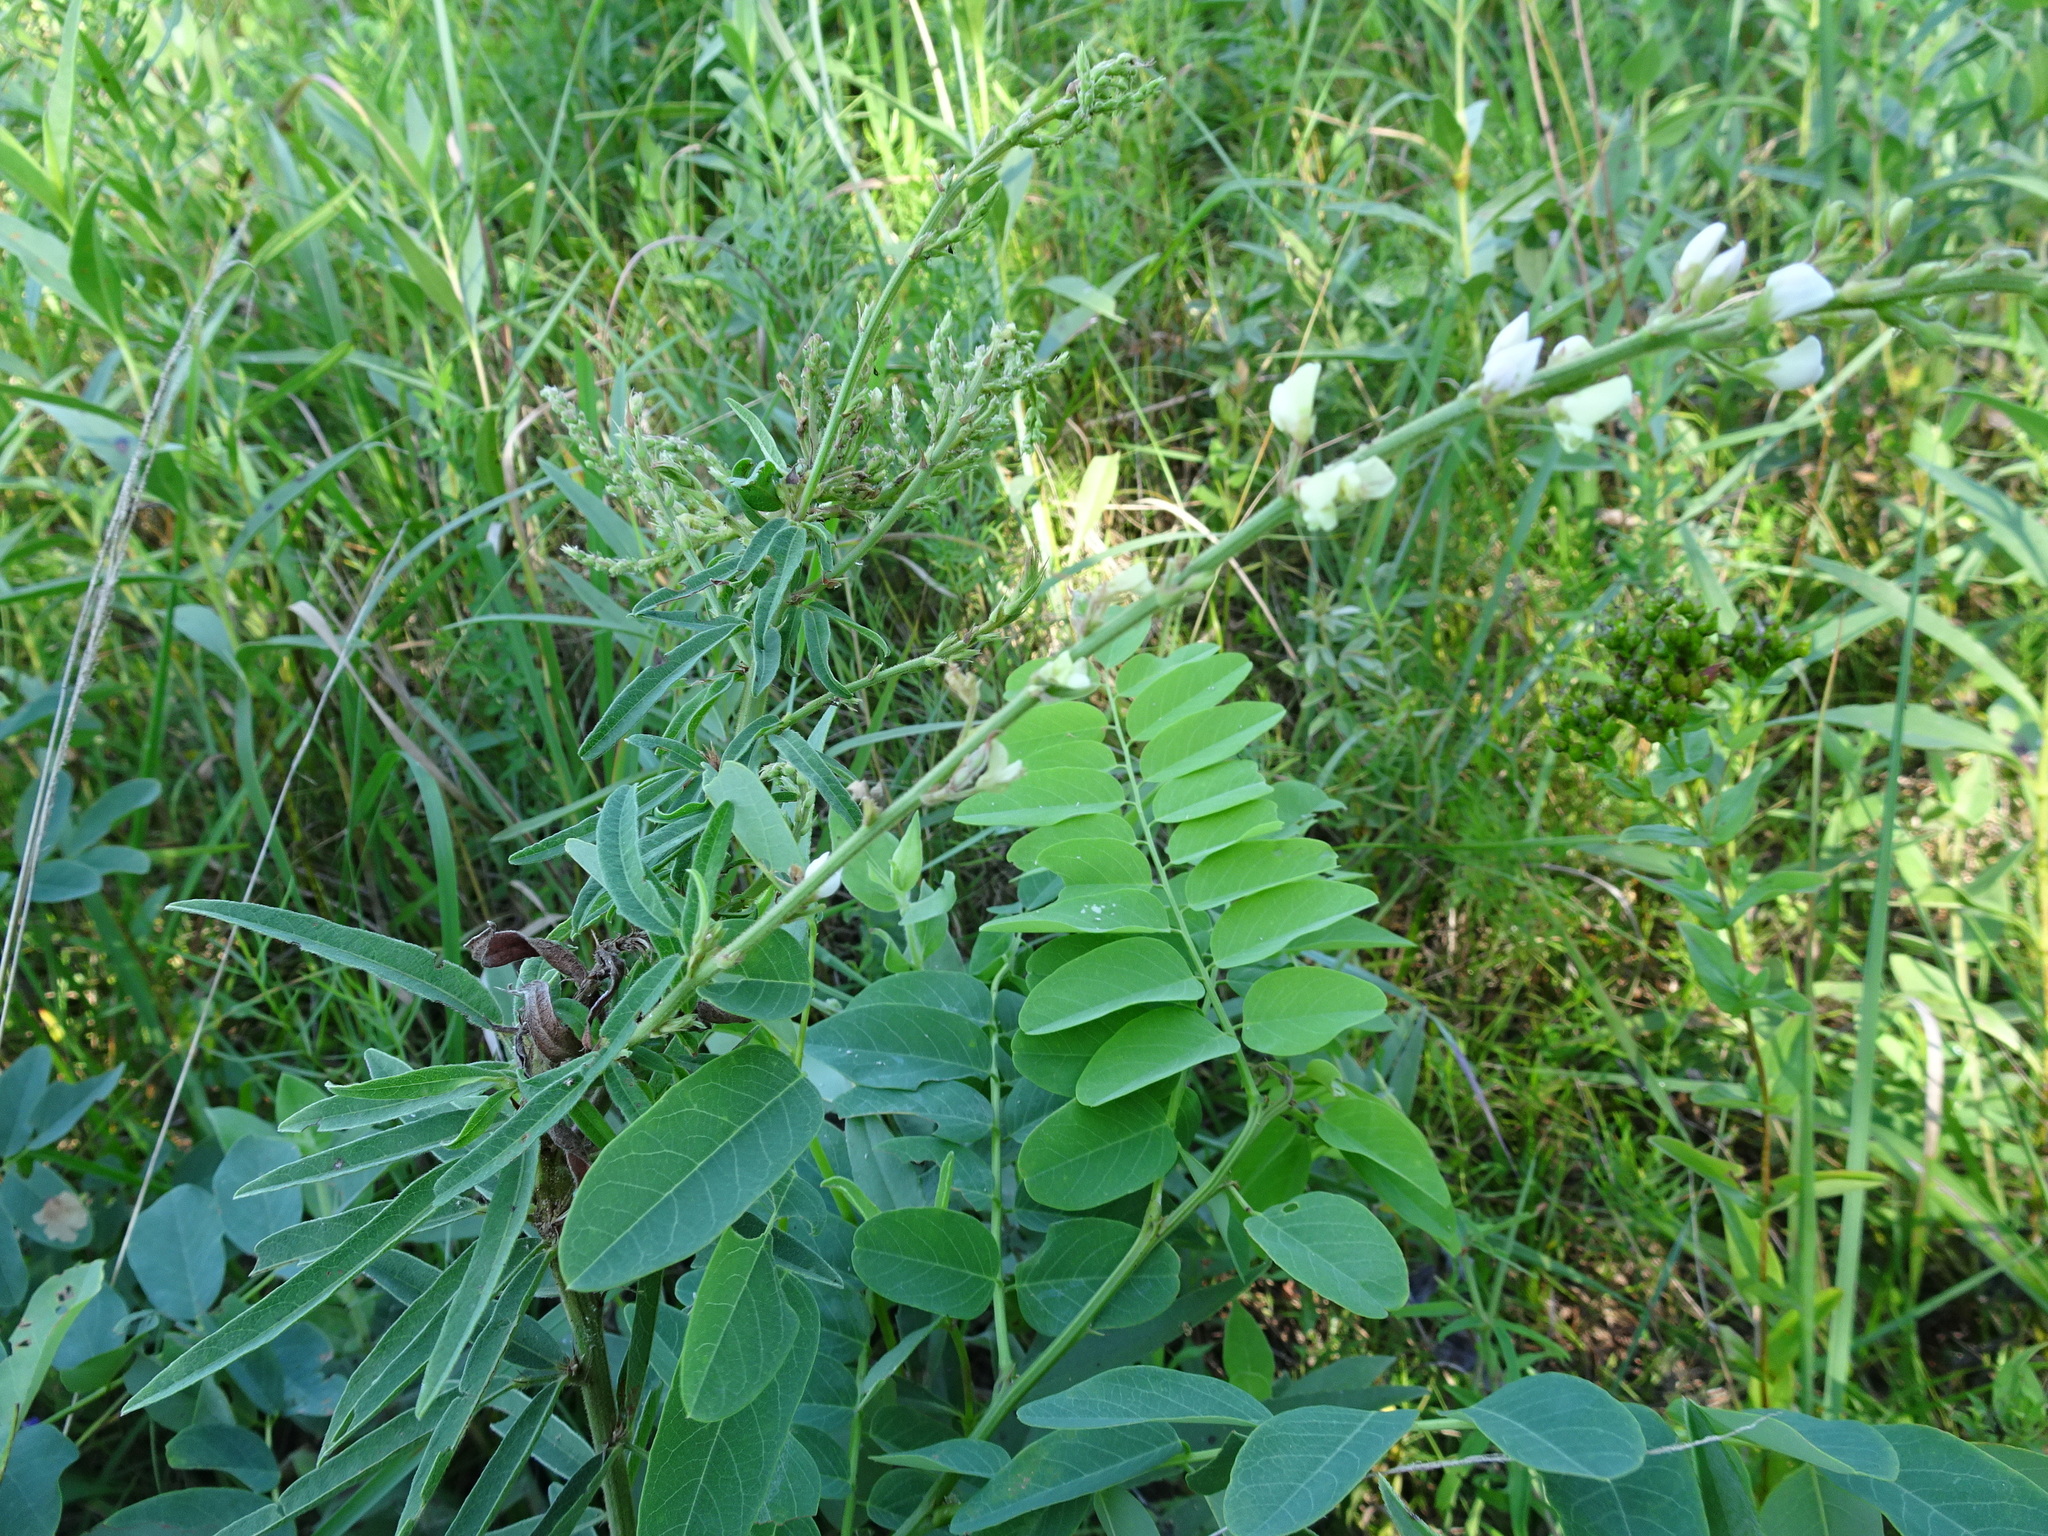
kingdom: Plantae
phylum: Tracheophyta
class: Magnoliopsida
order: Fabales
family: Fabaceae
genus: Desmodium
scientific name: Desmodium sessilifolium
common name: Sessile tick-clover
